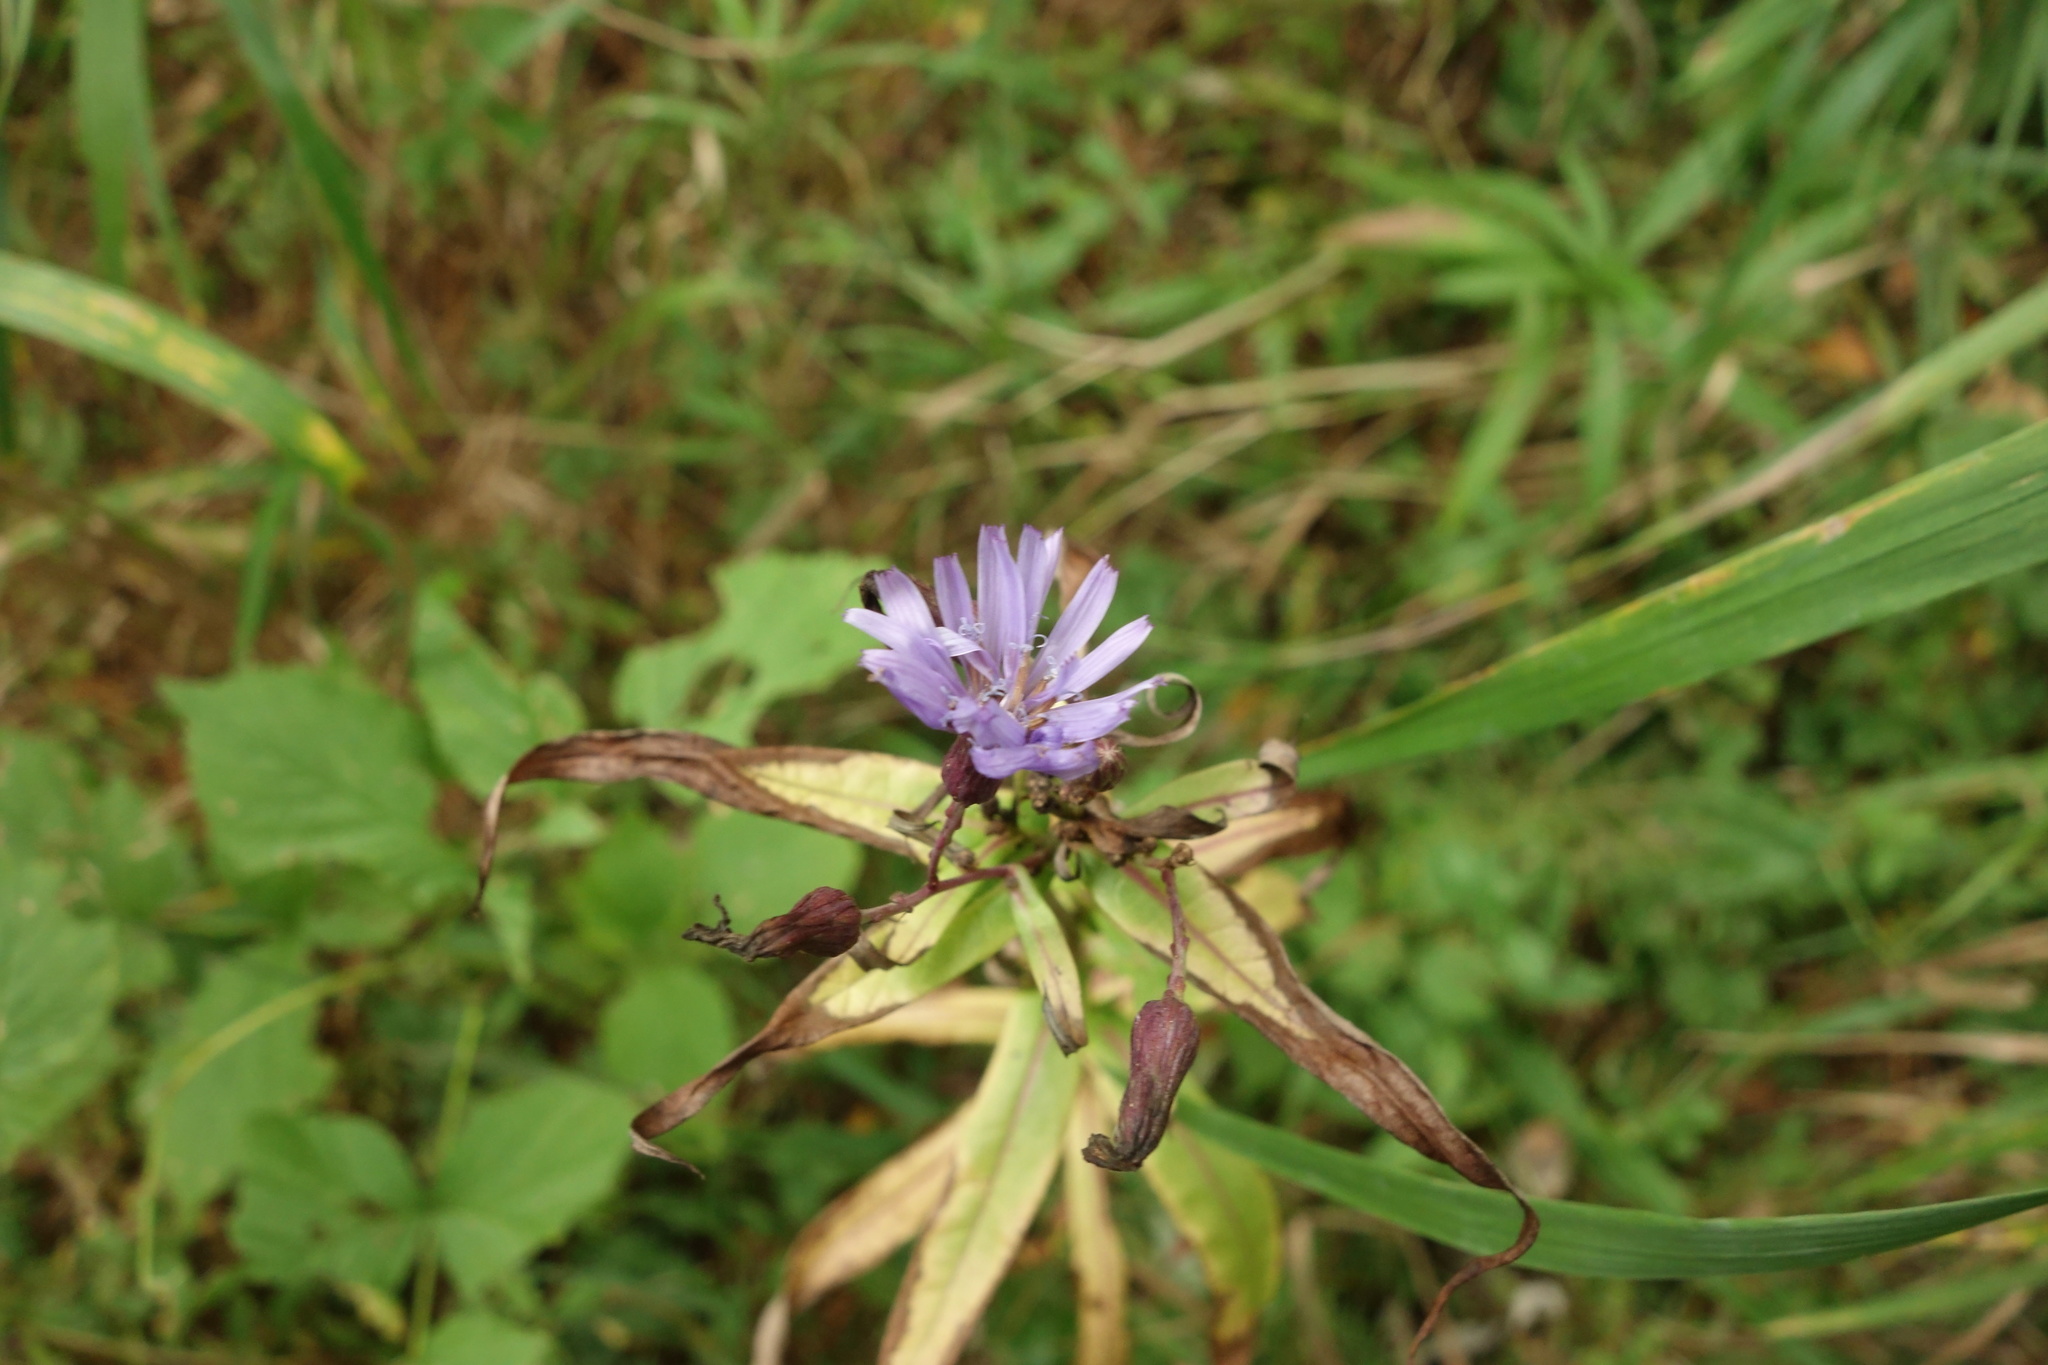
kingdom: Plantae
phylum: Tracheophyta
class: Magnoliopsida
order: Asterales
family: Asteraceae
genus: Lactuca
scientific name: Lactuca sibirica
